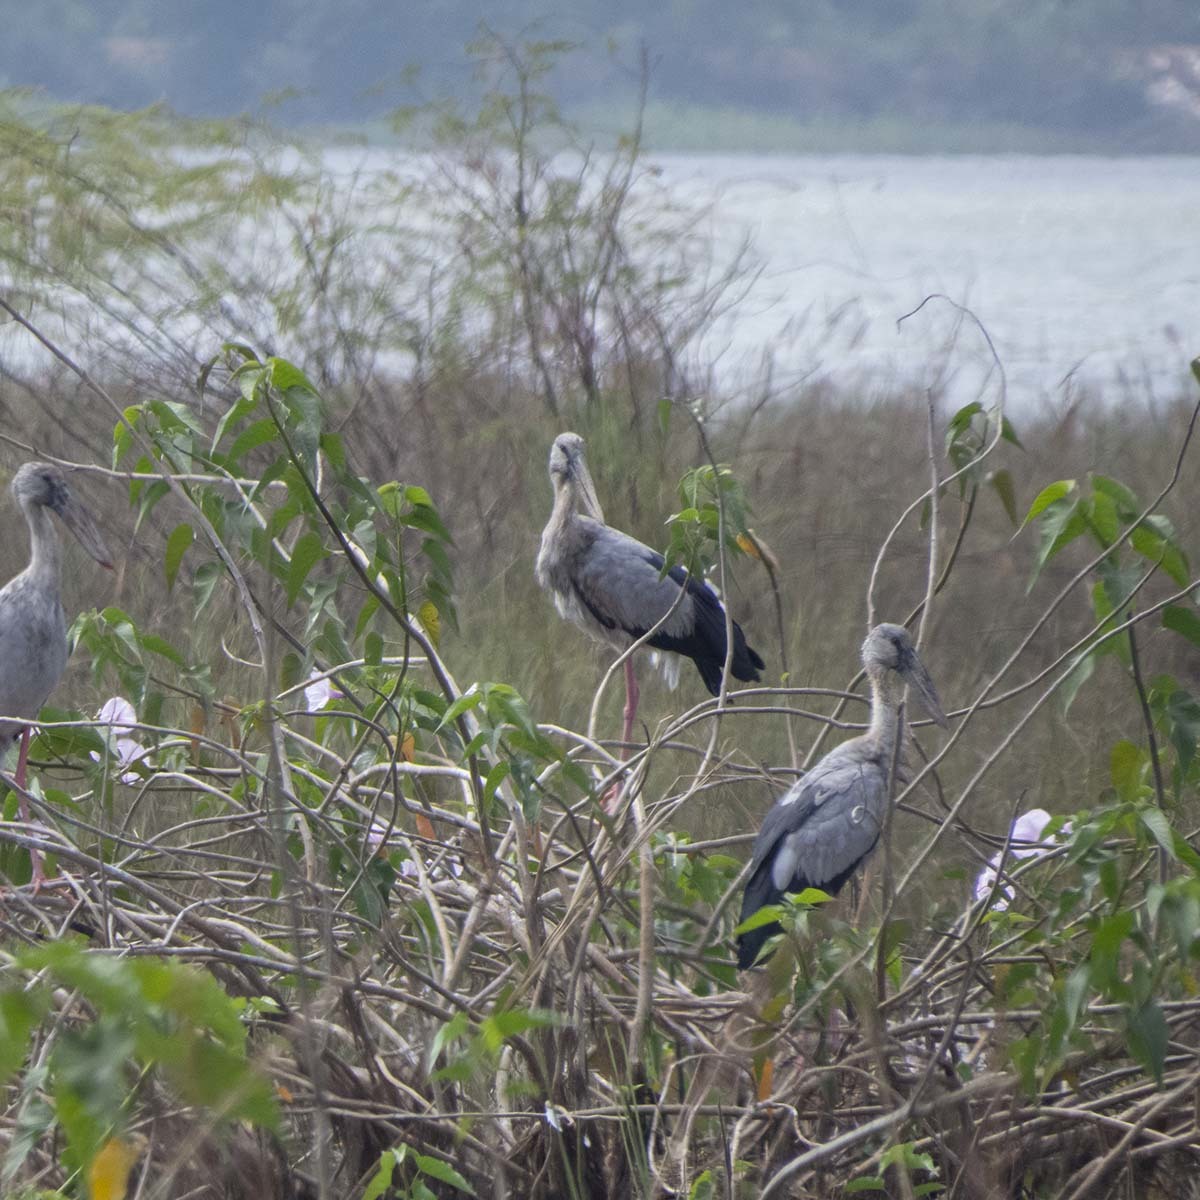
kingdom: Animalia
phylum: Chordata
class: Aves
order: Ciconiiformes
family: Ciconiidae
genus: Anastomus
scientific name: Anastomus oscitans
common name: Asian openbill
